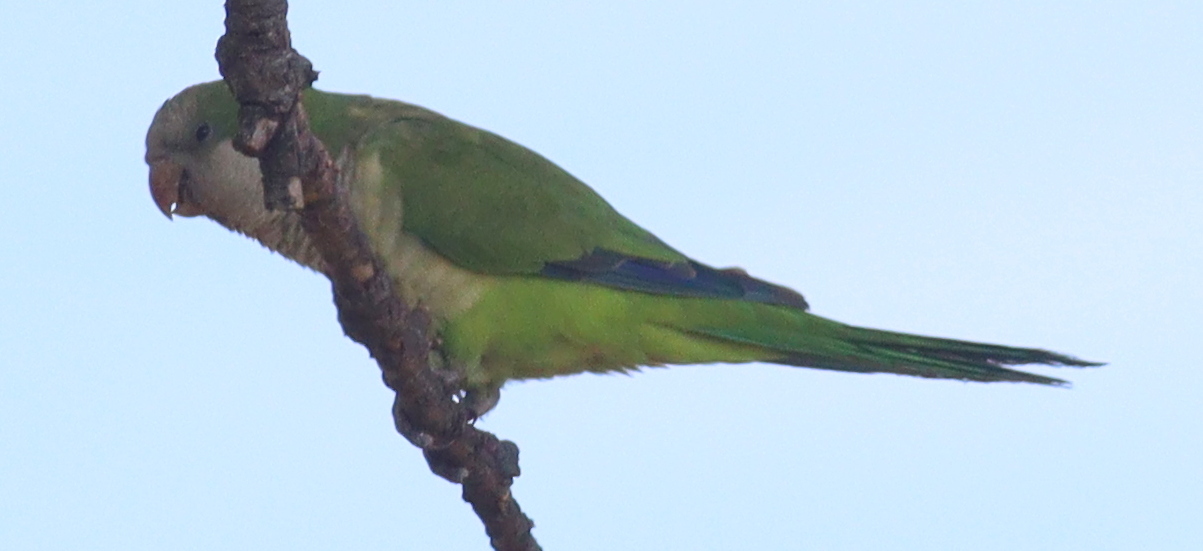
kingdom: Animalia
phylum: Chordata
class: Aves
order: Psittaciformes
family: Psittacidae
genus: Myiopsitta
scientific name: Myiopsitta monachus
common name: Monk parakeet
